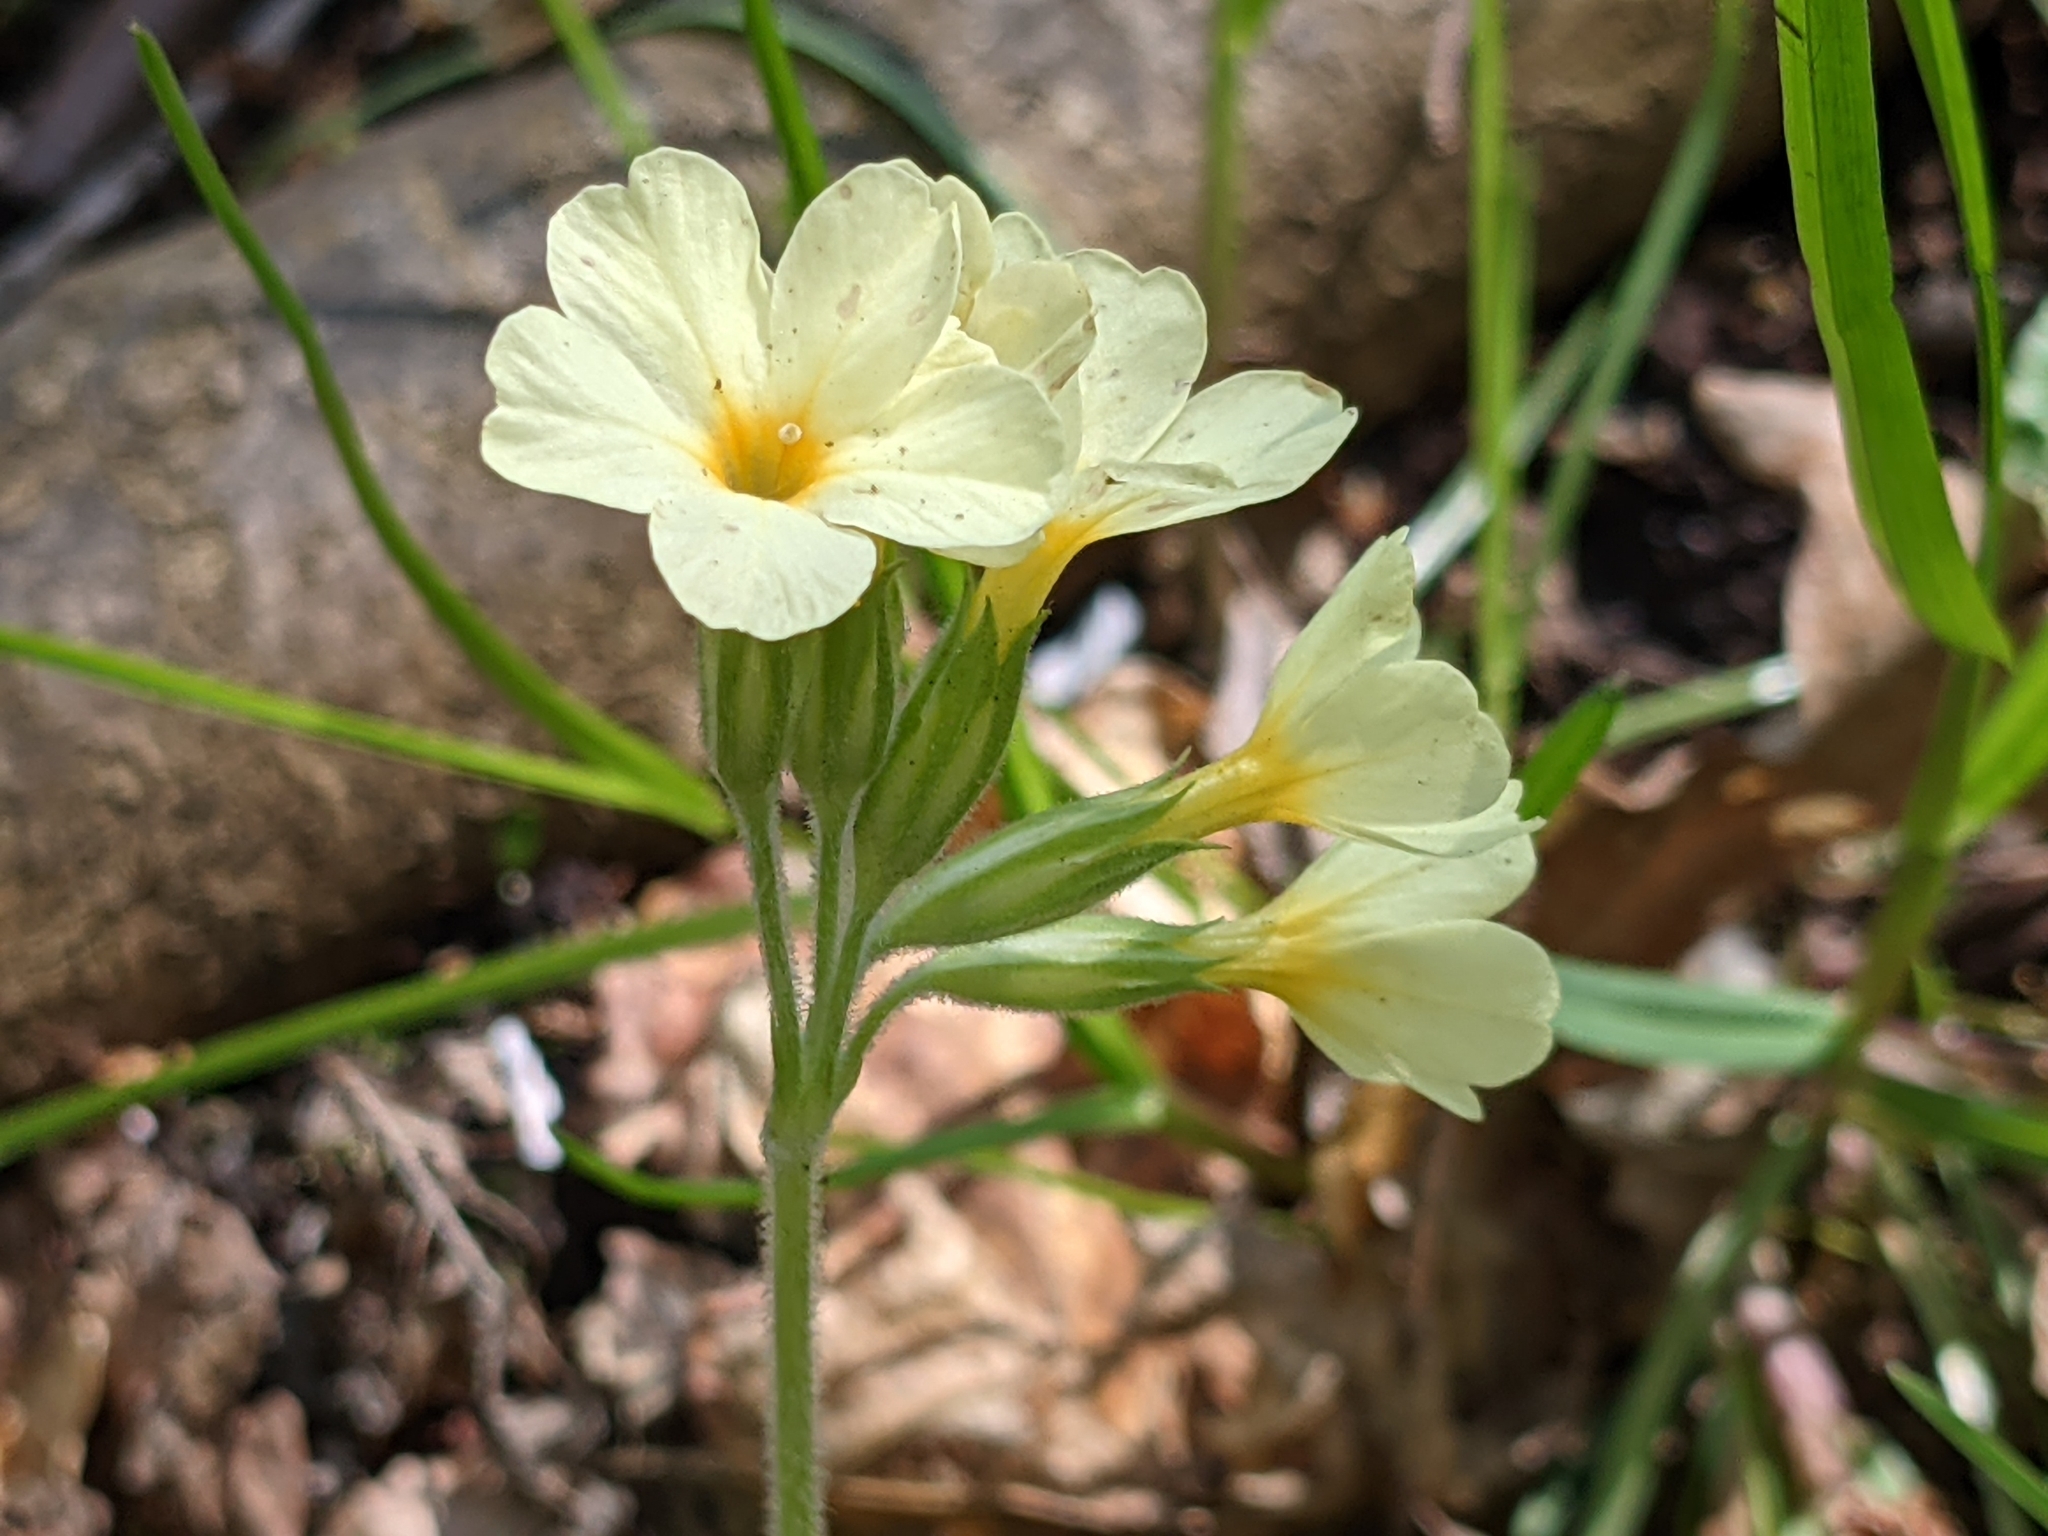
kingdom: Plantae
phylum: Tracheophyta
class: Magnoliopsida
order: Ericales
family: Primulaceae
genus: Primula
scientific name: Primula elatior
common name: Oxlip
